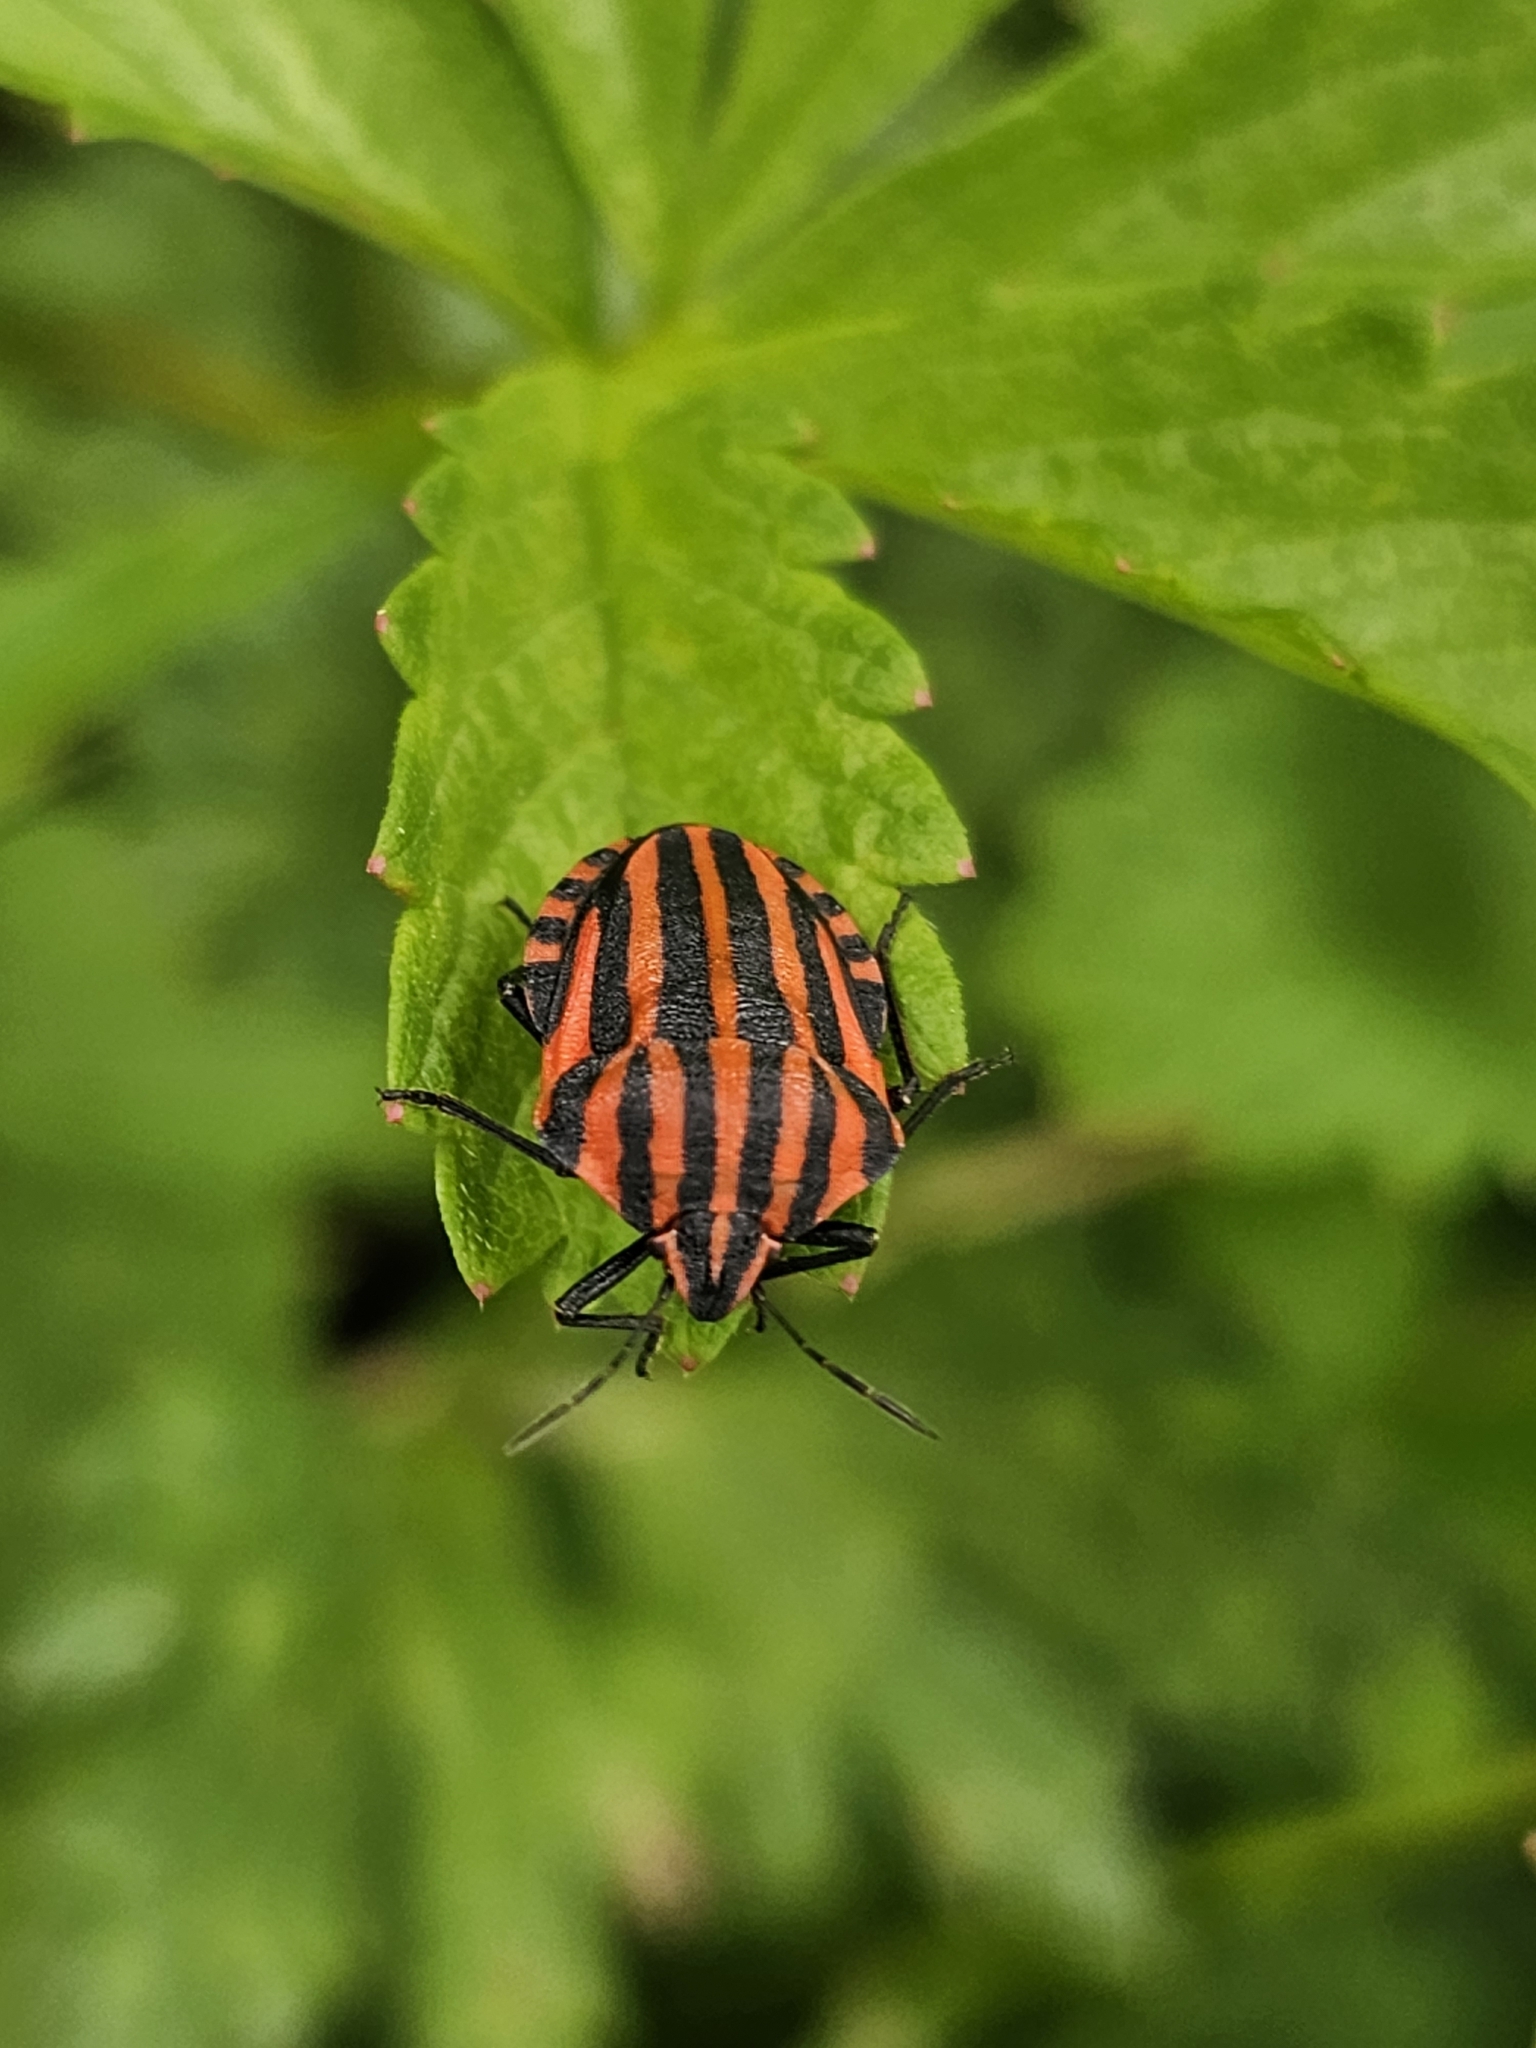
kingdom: Animalia
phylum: Arthropoda
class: Insecta
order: Hemiptera
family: Pentatomidae
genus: Graphosoma
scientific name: Graphosoma italicum
